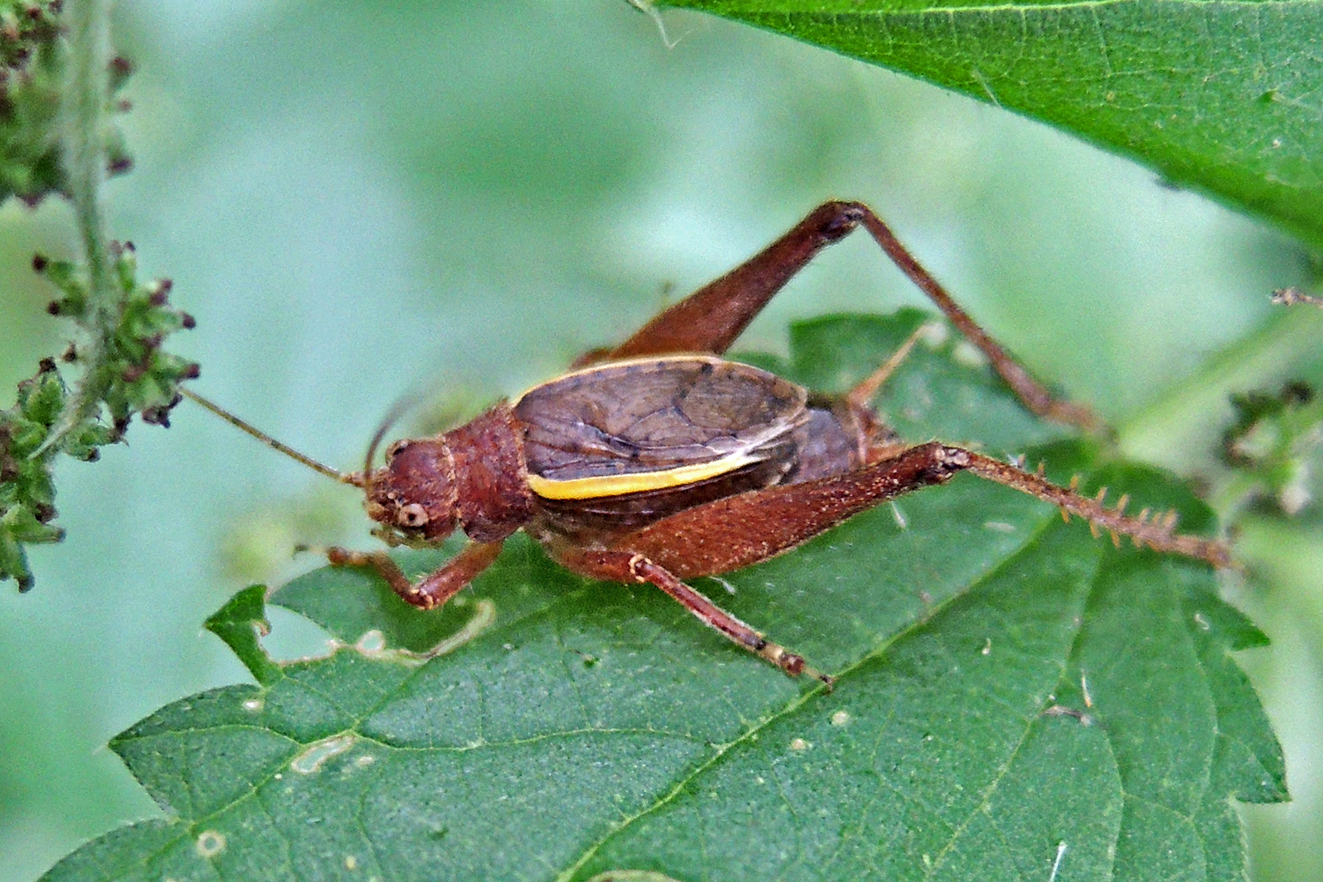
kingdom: Animalia
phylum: Arthropoda
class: Insecta
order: Orthoptera
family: Gryllidae
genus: Hapithus
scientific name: Hapithus agitator
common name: Restless bush cricket
